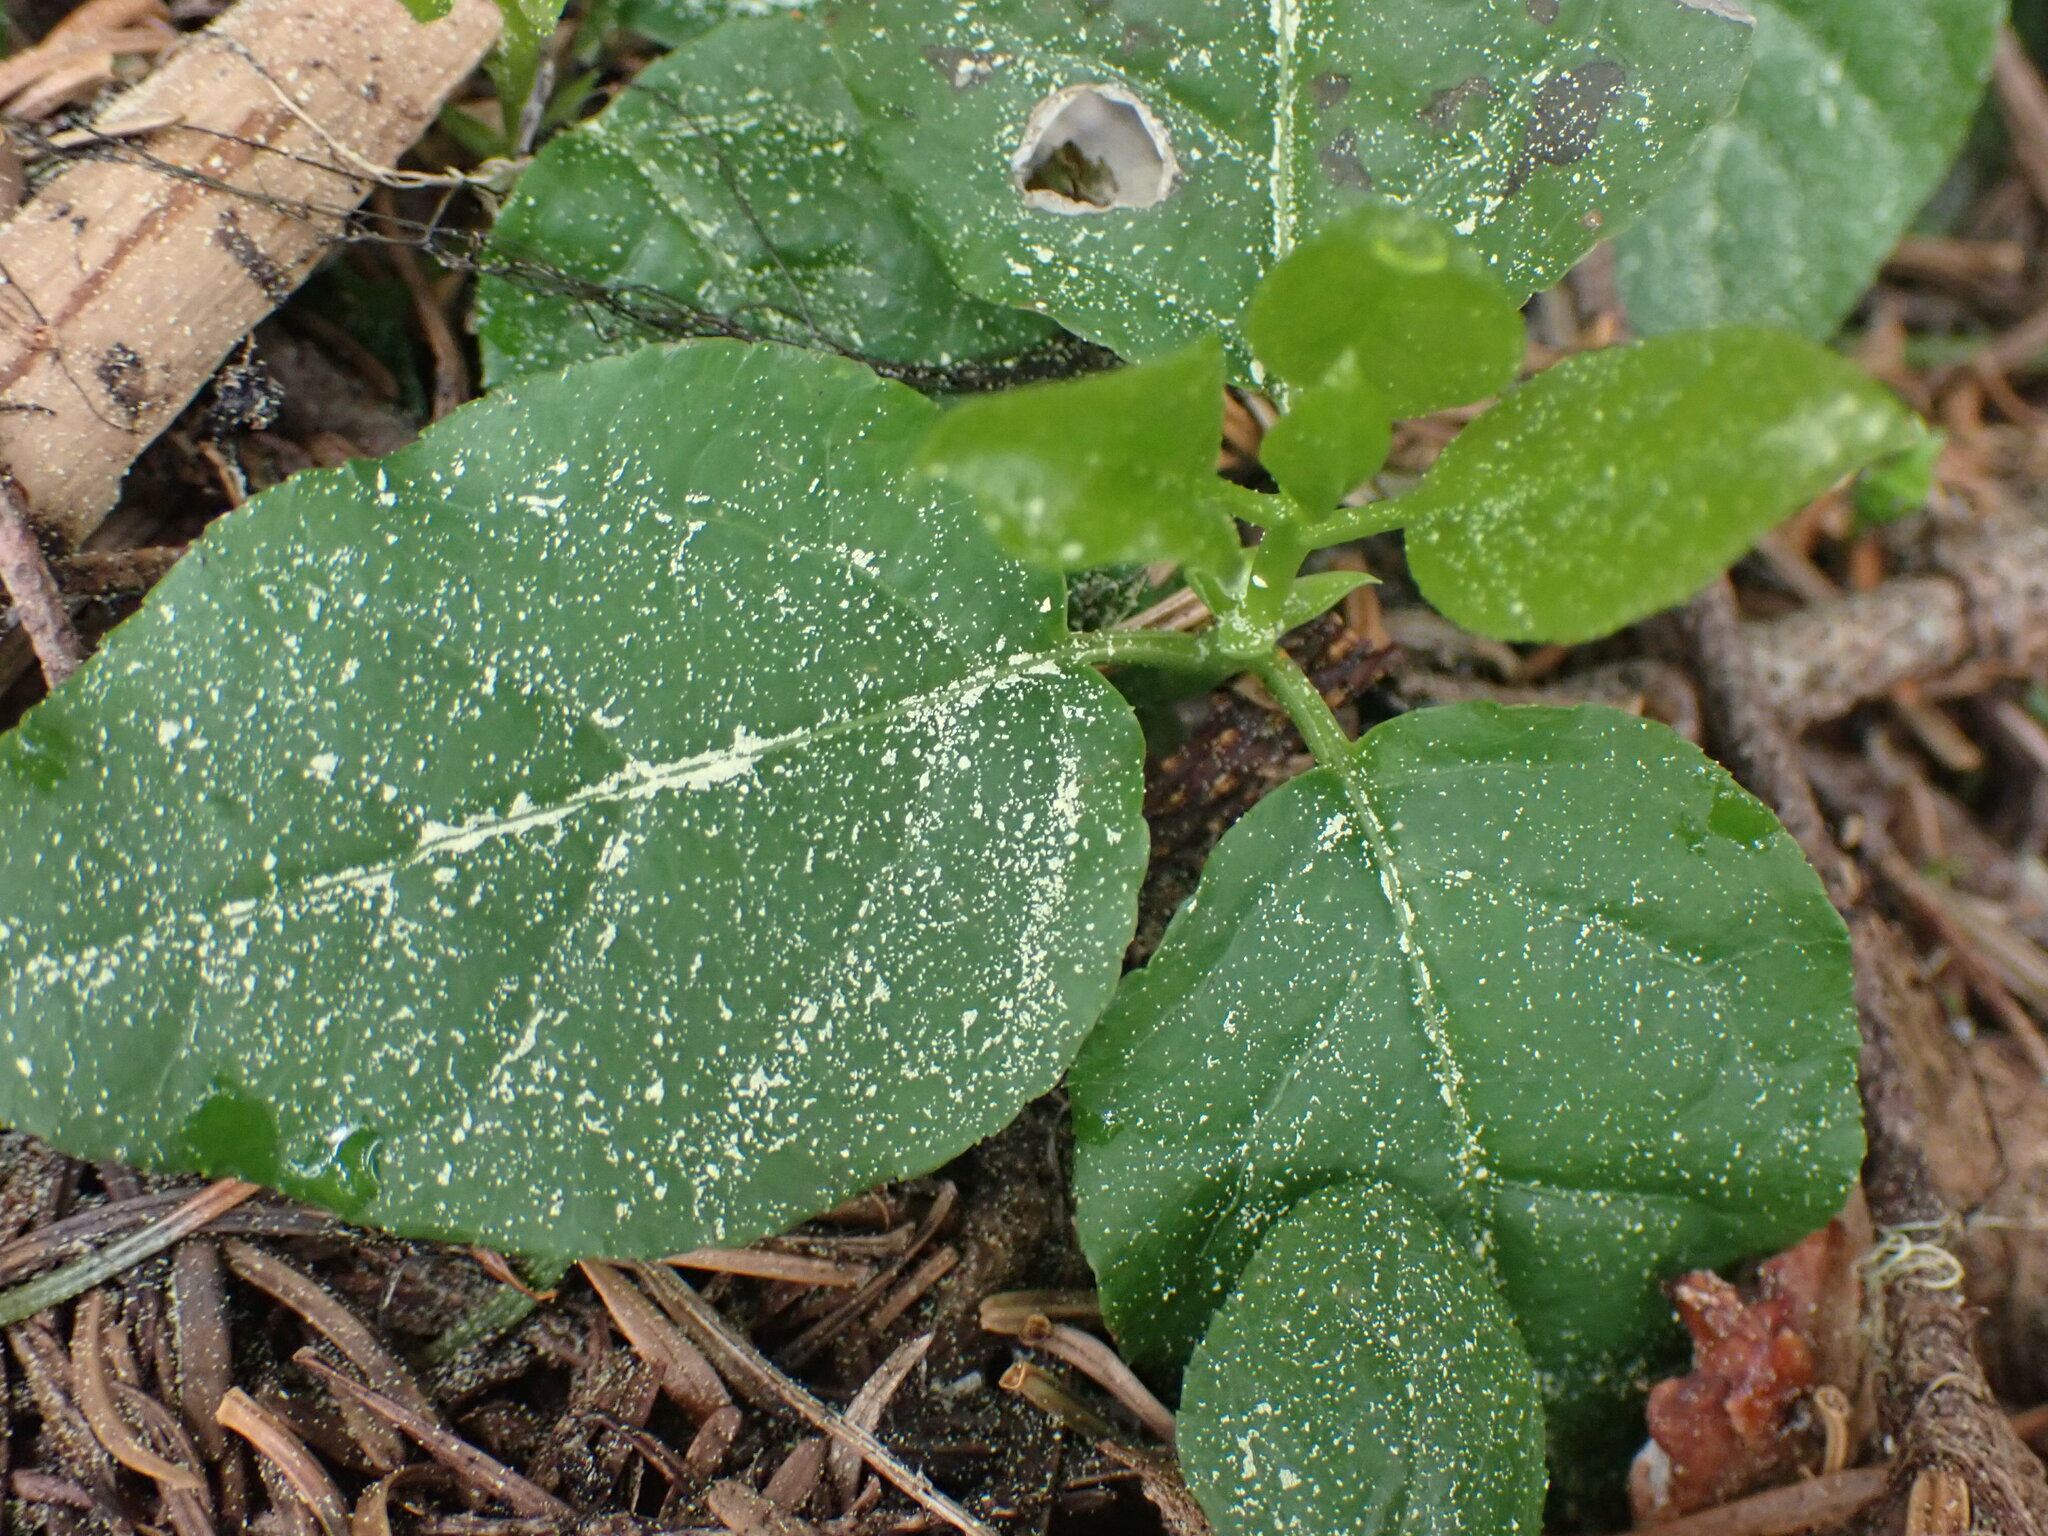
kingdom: Plantae
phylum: Tracheophyta
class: Magnoliopsida
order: Ericales
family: Ericaceae
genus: Orthilia
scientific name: Orthilia secunda
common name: One-sided orthilia
